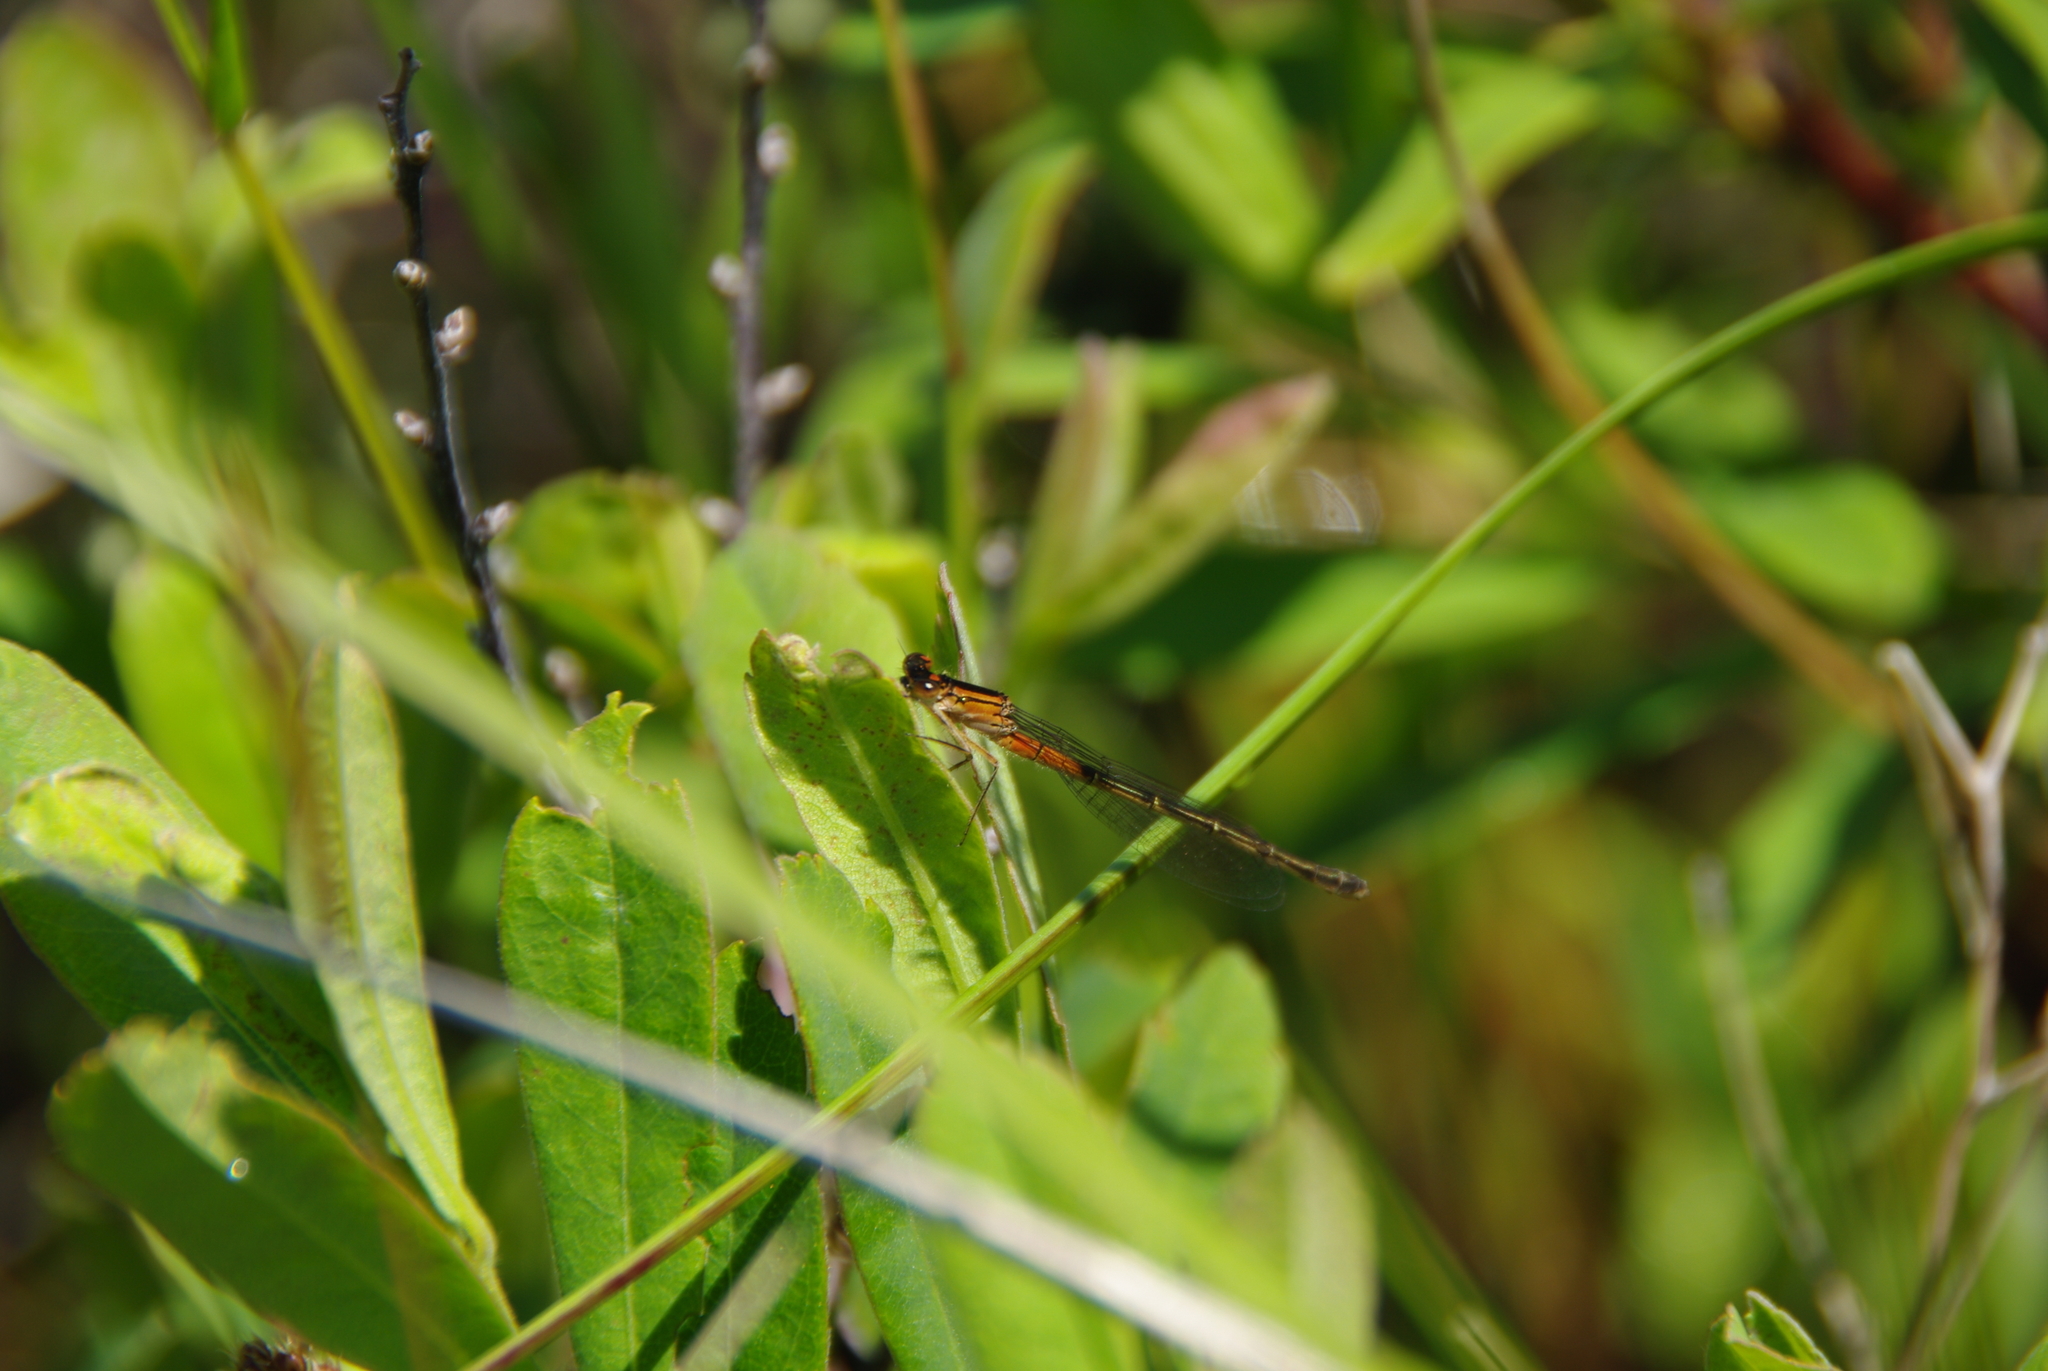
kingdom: Animalia
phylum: Arthropoda
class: Insecta
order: Odonata
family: Coenagrionidae
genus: Ischnura
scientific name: Ischnura verticalis
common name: Eastern forktail
